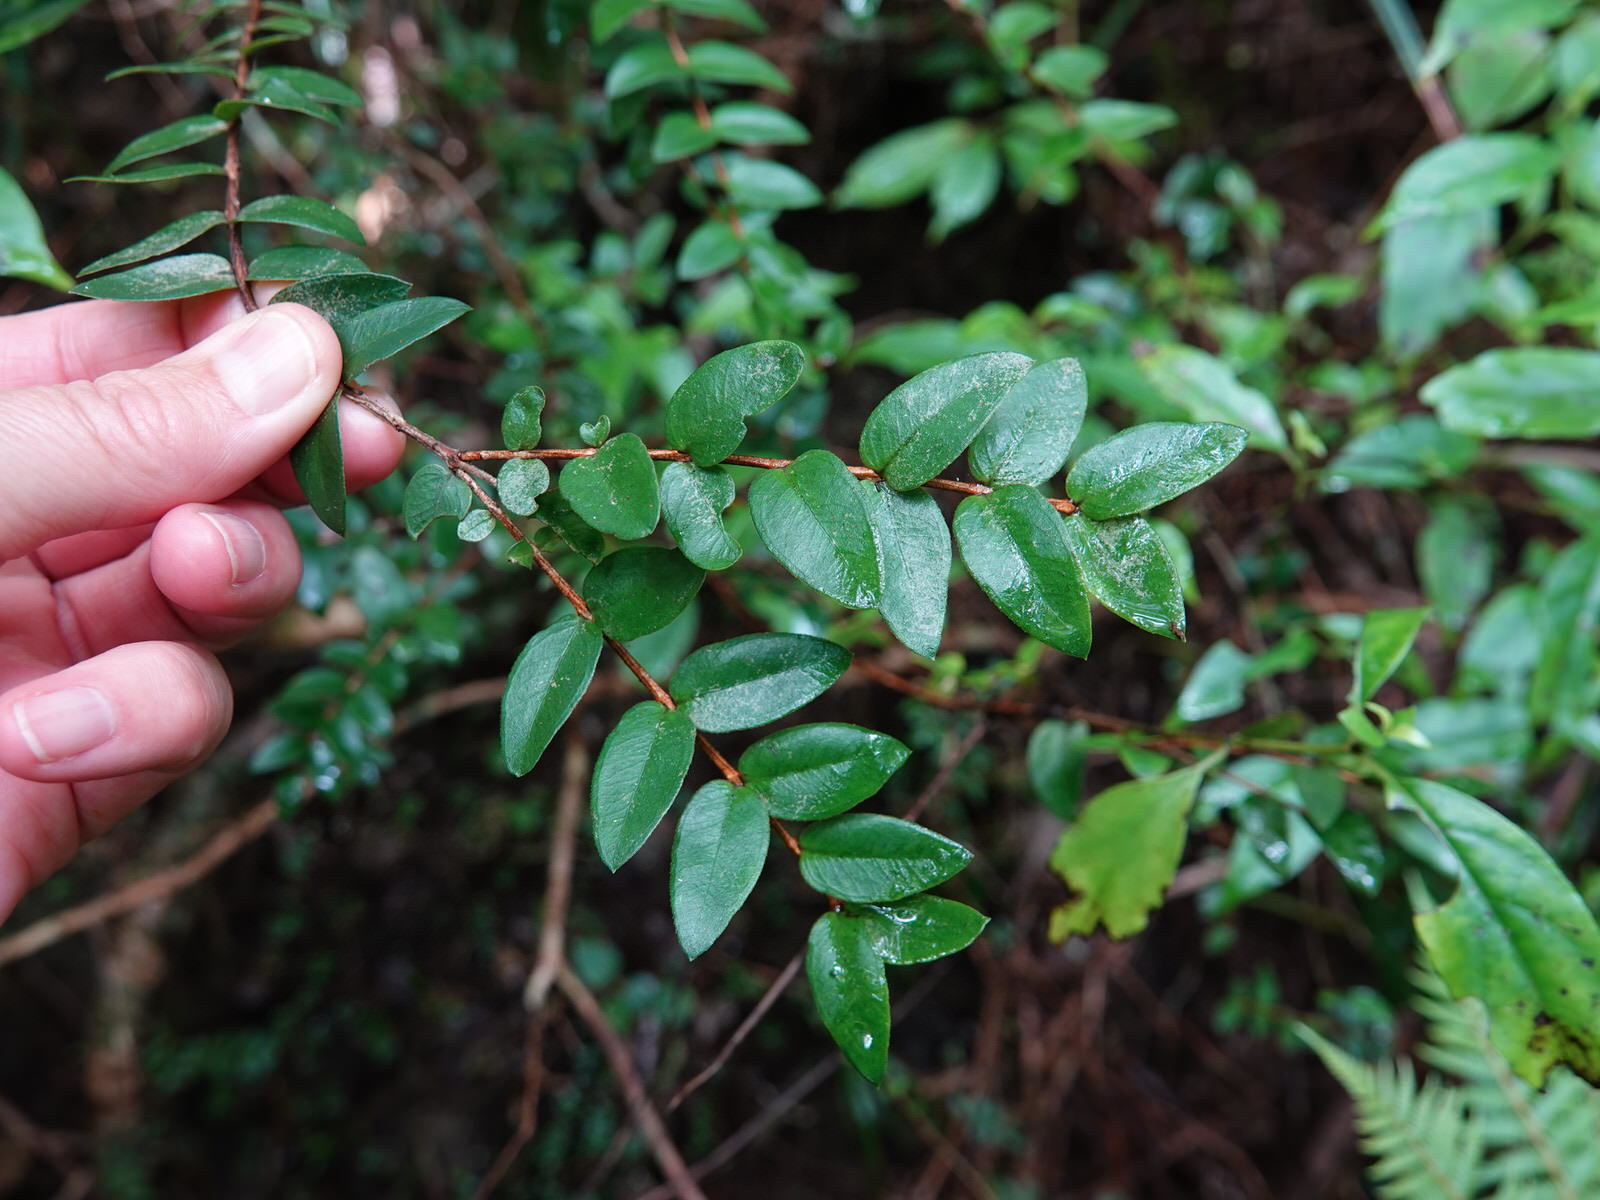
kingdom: Plantae
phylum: Tracheophyta
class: Magnoliopsida
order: Myrtales
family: Myrtaceae
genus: Metrosideros
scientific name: Metrosideros diffusa
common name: Small ratavine
